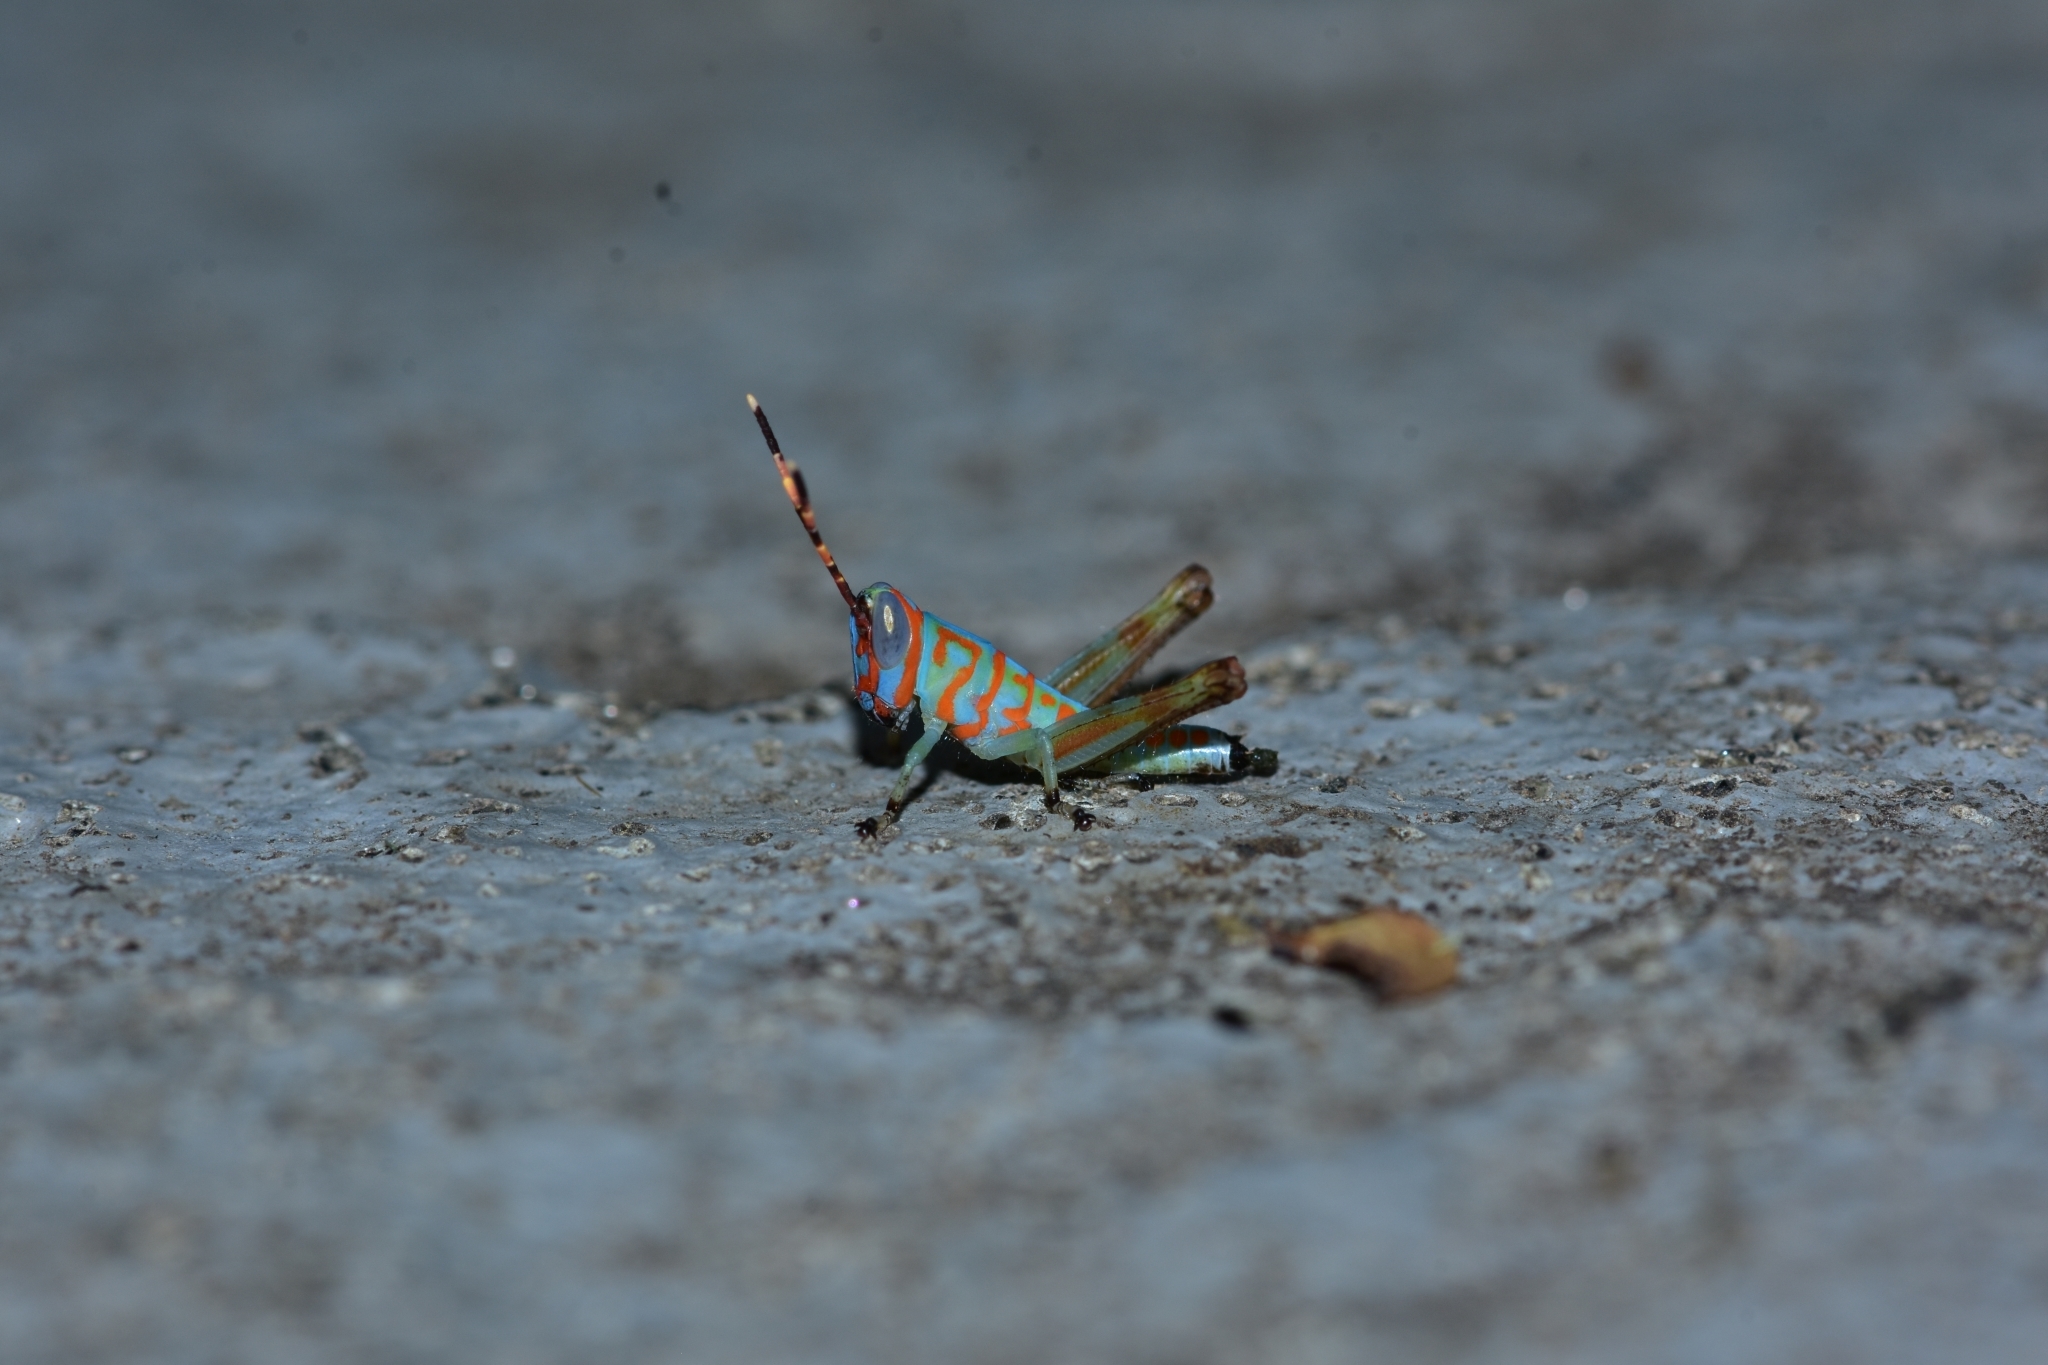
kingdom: Animalia
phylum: Arthropoda
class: Insecta
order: Orthoptera
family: Acrididae
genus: Pirithoicus
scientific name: Pirithoicus ophthalmicus
